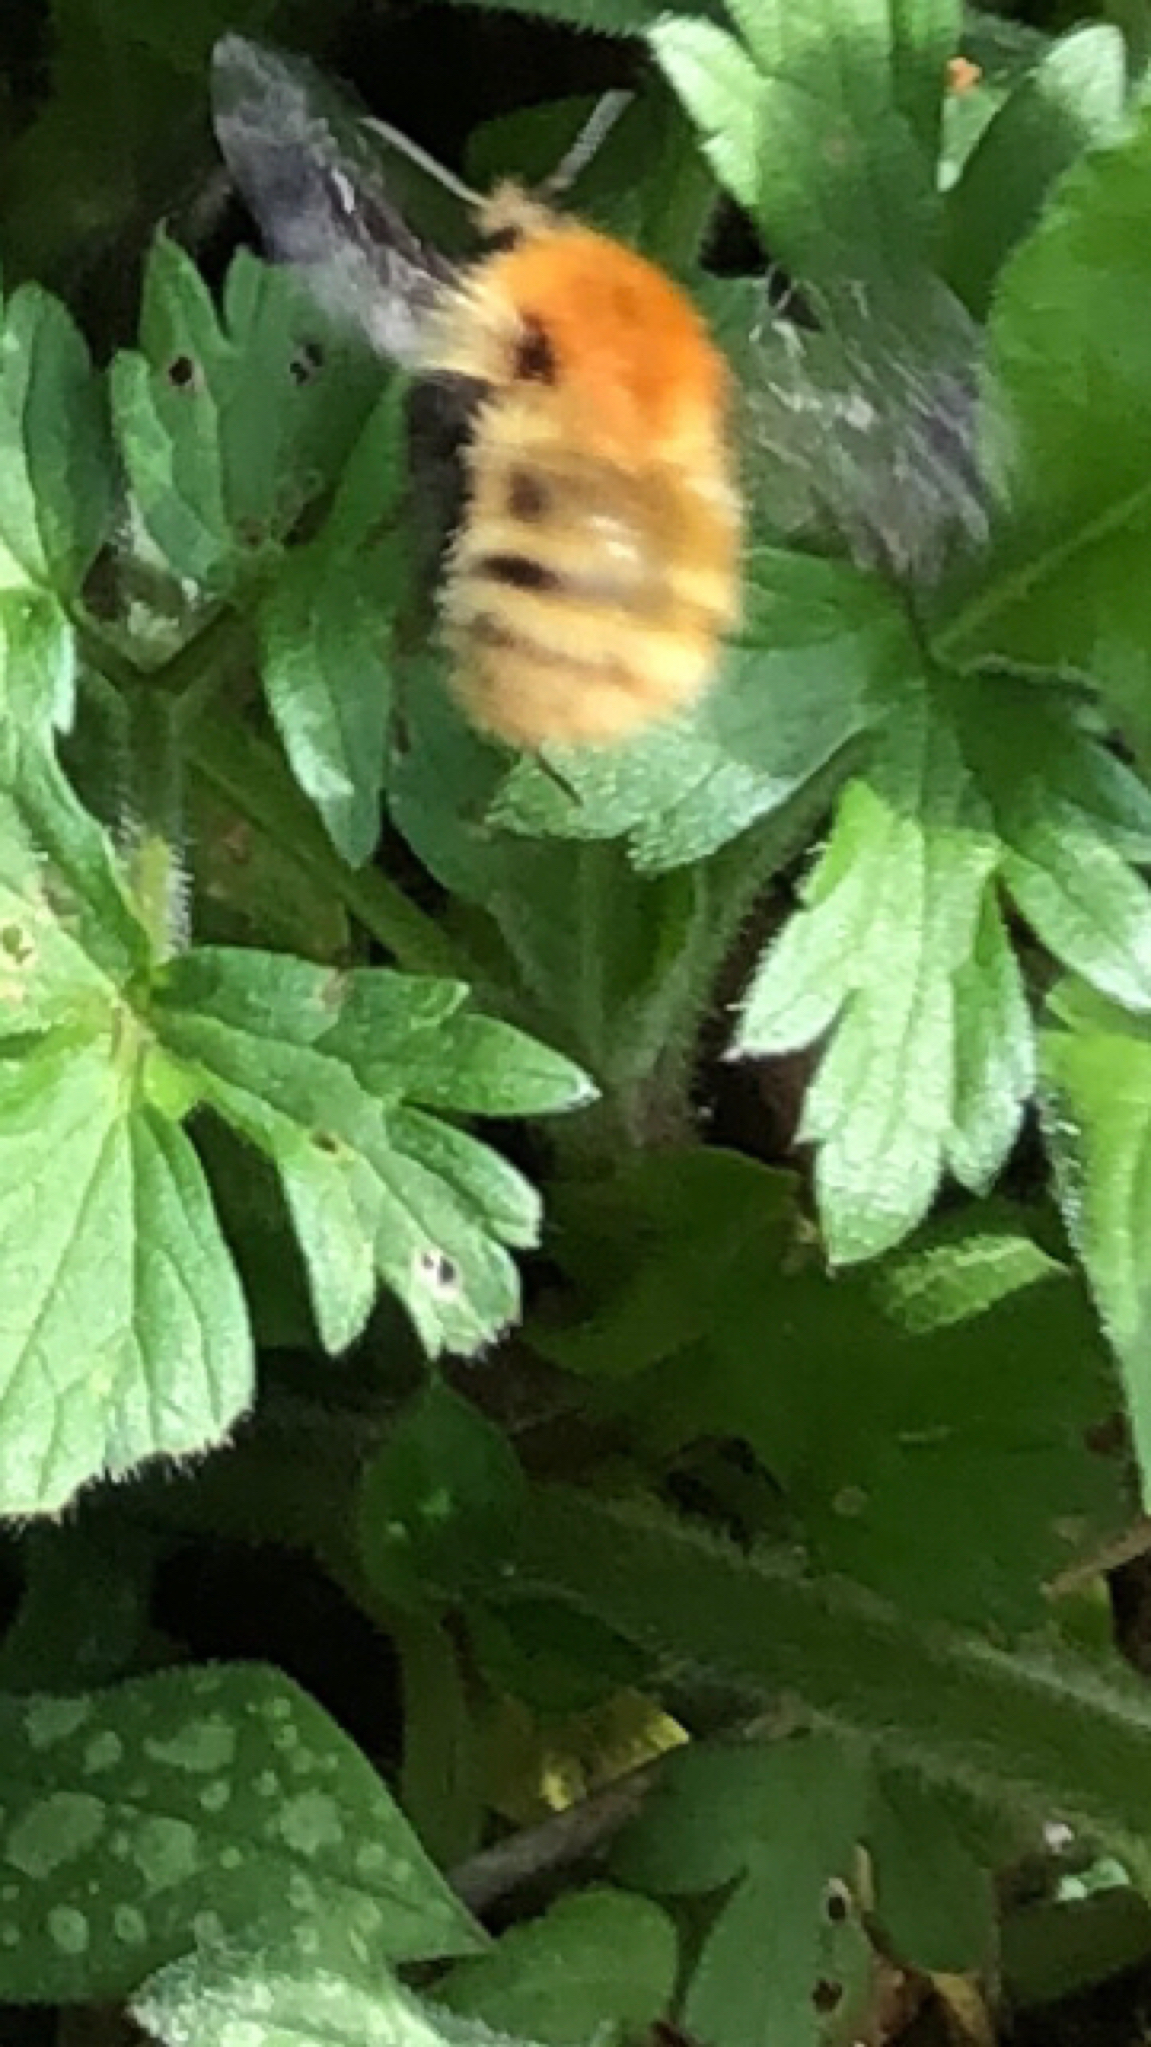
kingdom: Animalia
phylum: Arthropoda
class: Insecta
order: Hymenoptera
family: Apidae
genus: Bombus
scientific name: Bombus pascuorum
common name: Common carder bee
